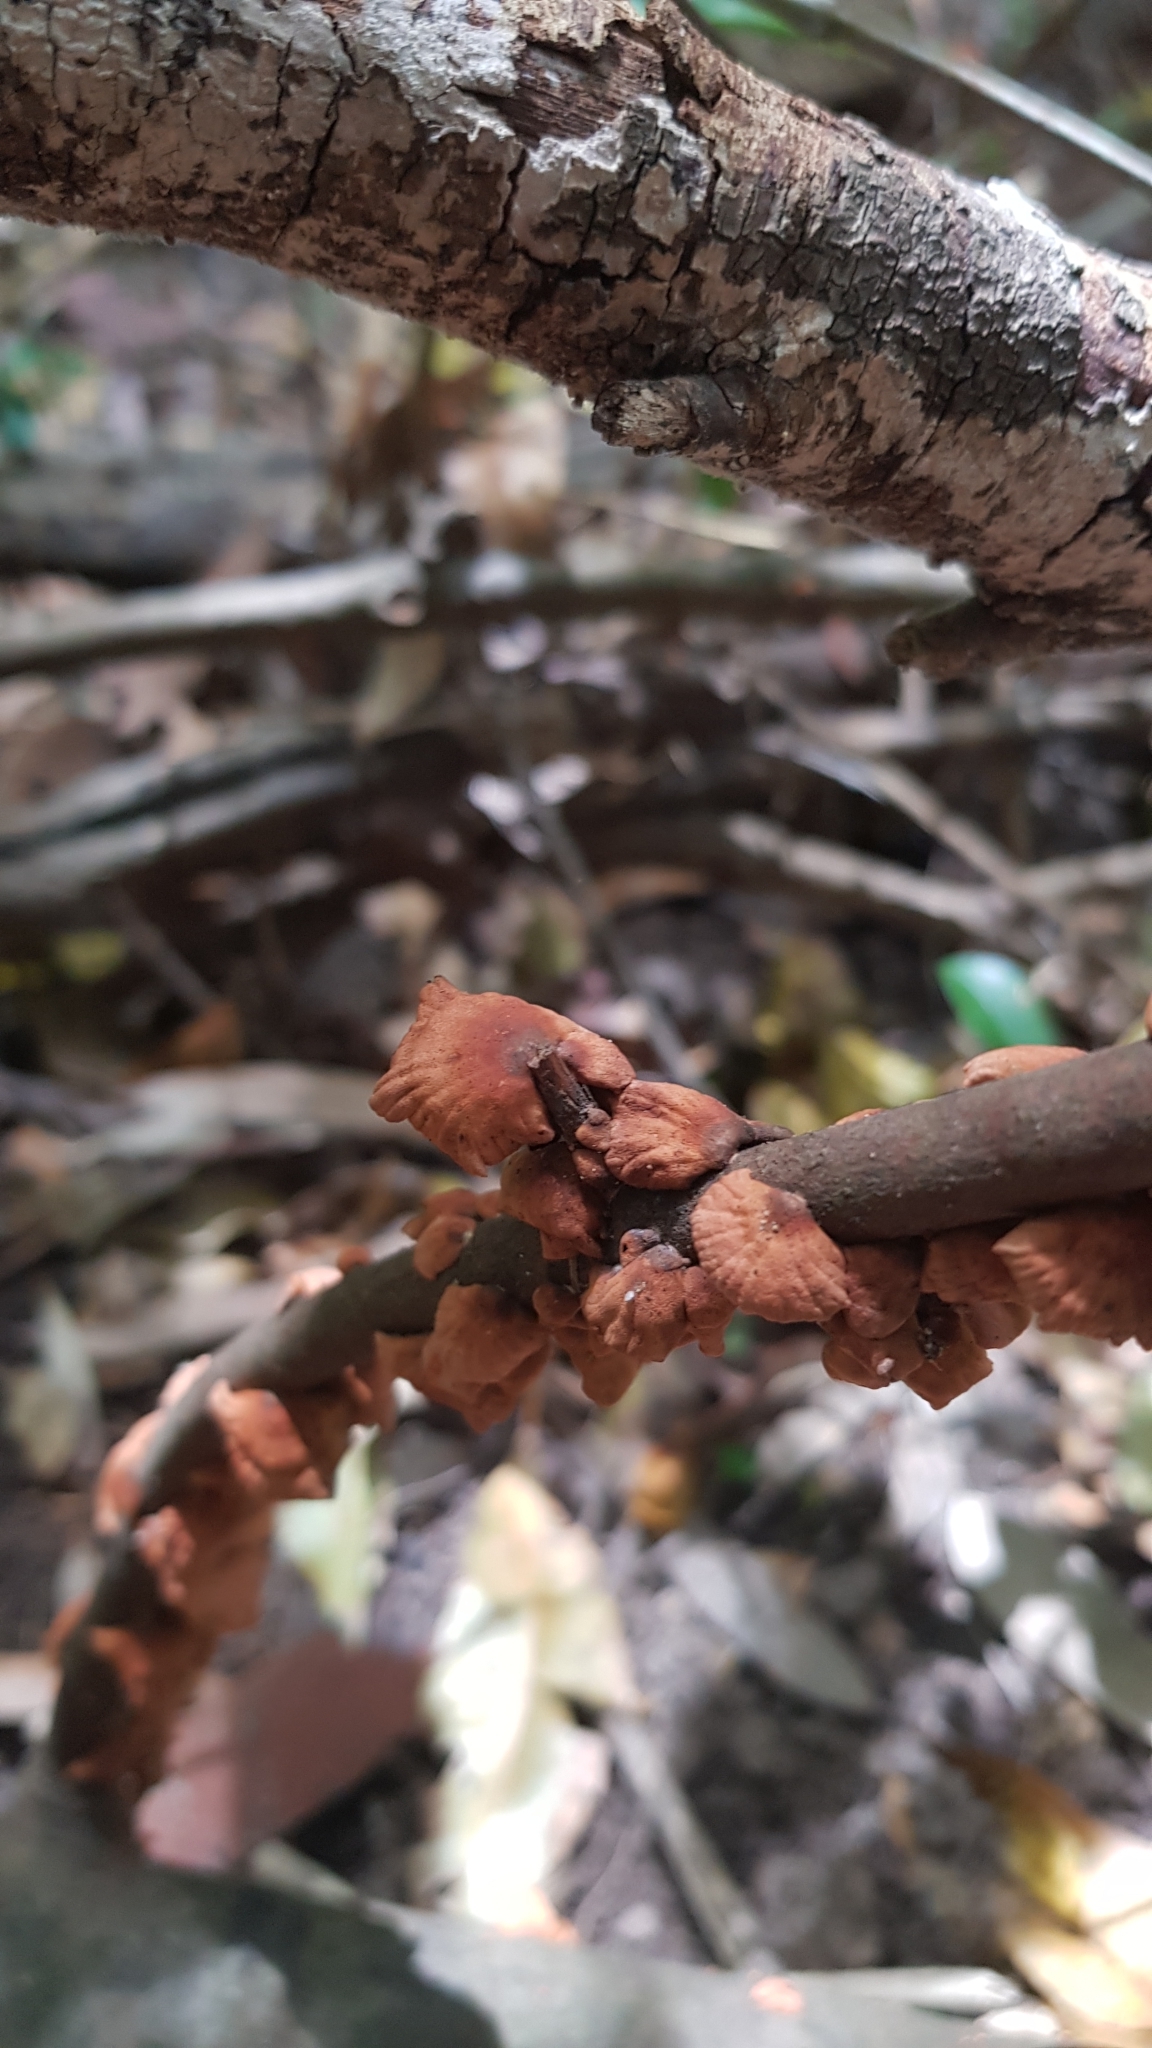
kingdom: Fungi
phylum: Basidiomycota
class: Agaricomycetes
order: Agaricales
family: Omphalotaceae
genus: Anthracophyllum
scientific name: Anthracophyllum archeri
